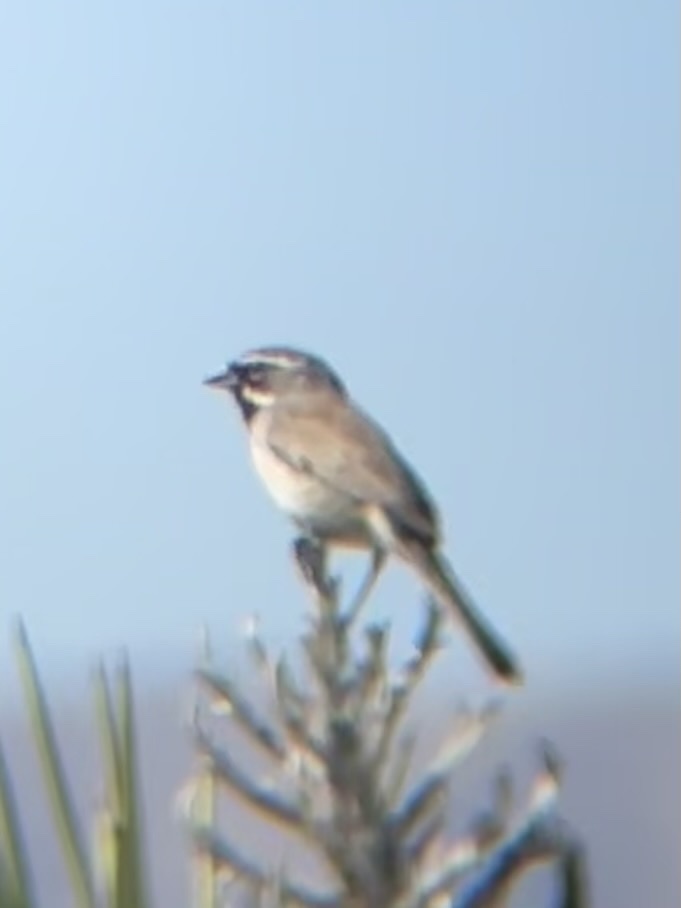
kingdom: Animalia
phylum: Chordata
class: Aves
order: Passeriformes
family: Passerellidae
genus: Amphispiza
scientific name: Amphispiza bilineata
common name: Black-throated sparrow
